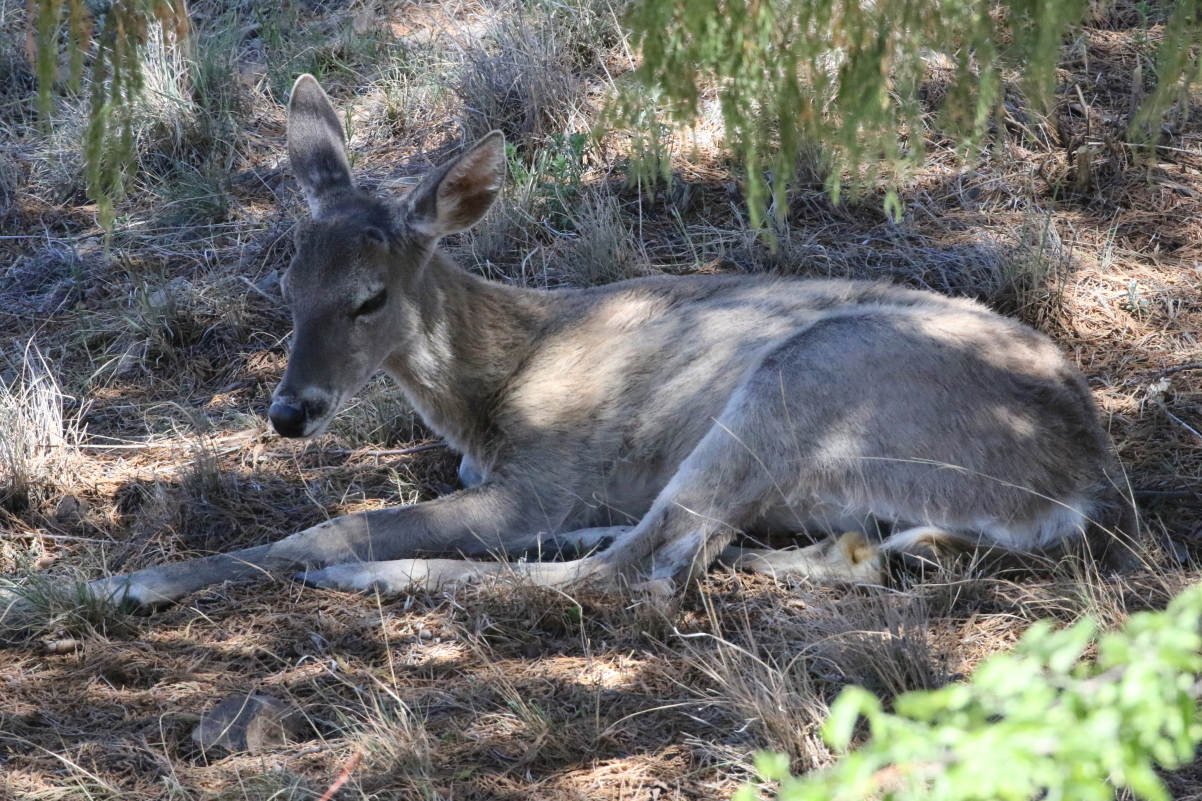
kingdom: Animalia
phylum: Chordata
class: Mammalia
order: Artiodactyla
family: Cervidae
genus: Odocoileus
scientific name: Odocoileus virginianus
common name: White-tailed deer
